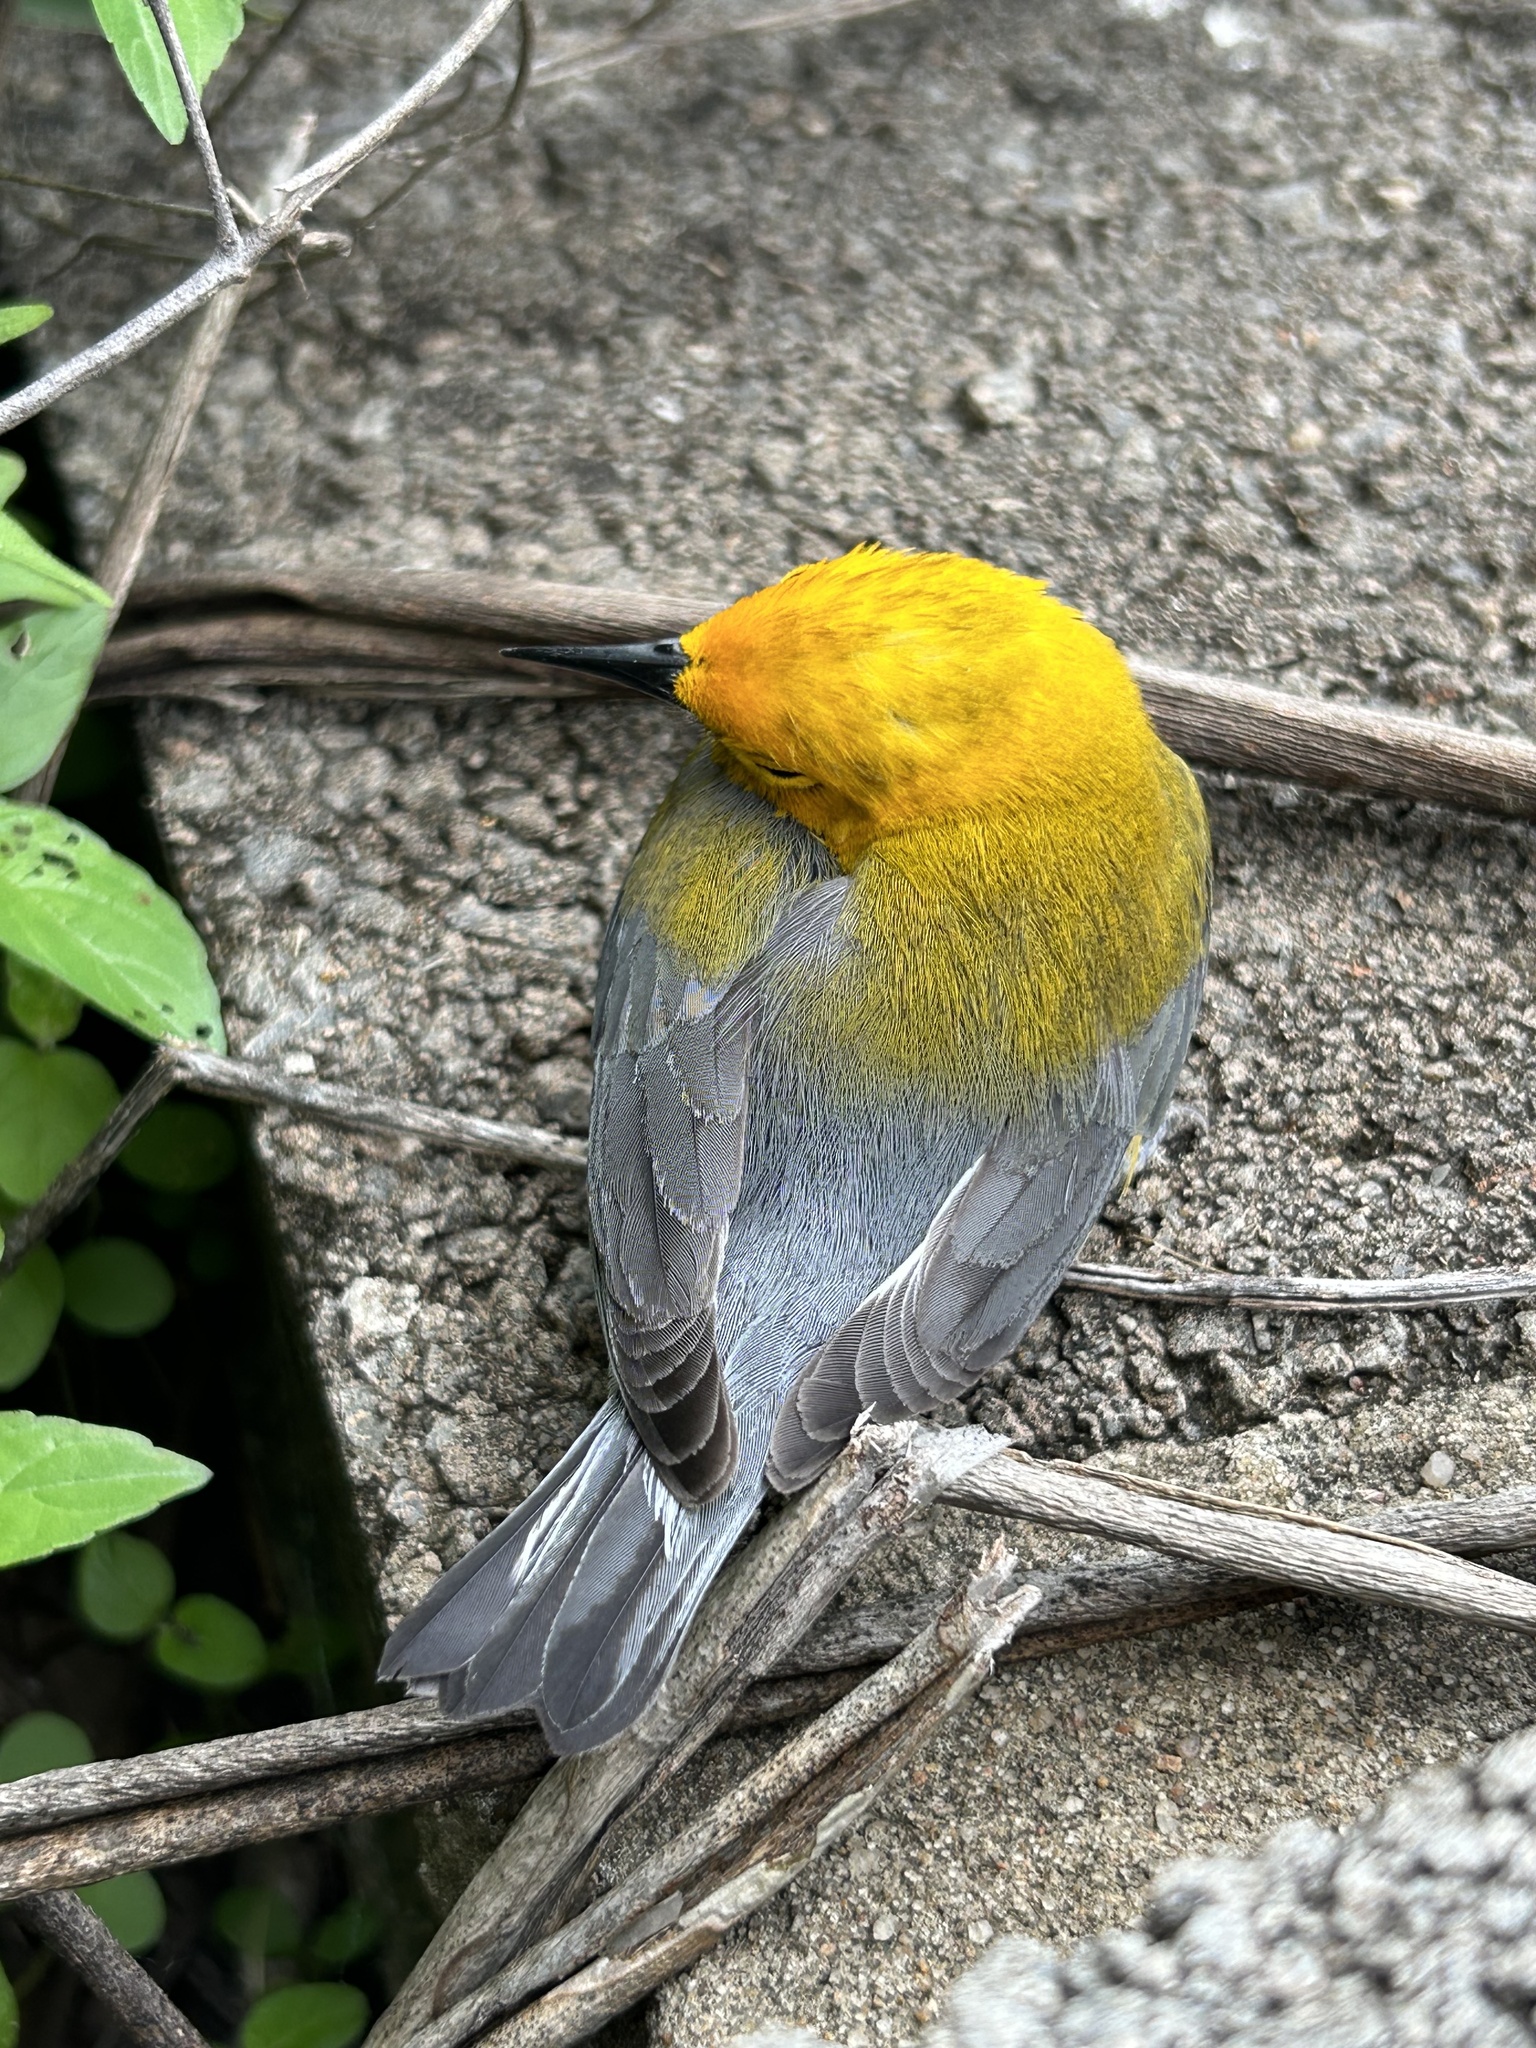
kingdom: Animalia
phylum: Chordata
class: Aves
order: Passeriformes
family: Parulidae
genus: Protonotaria
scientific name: Protonotaria citrea
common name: Prothonotary warbler
